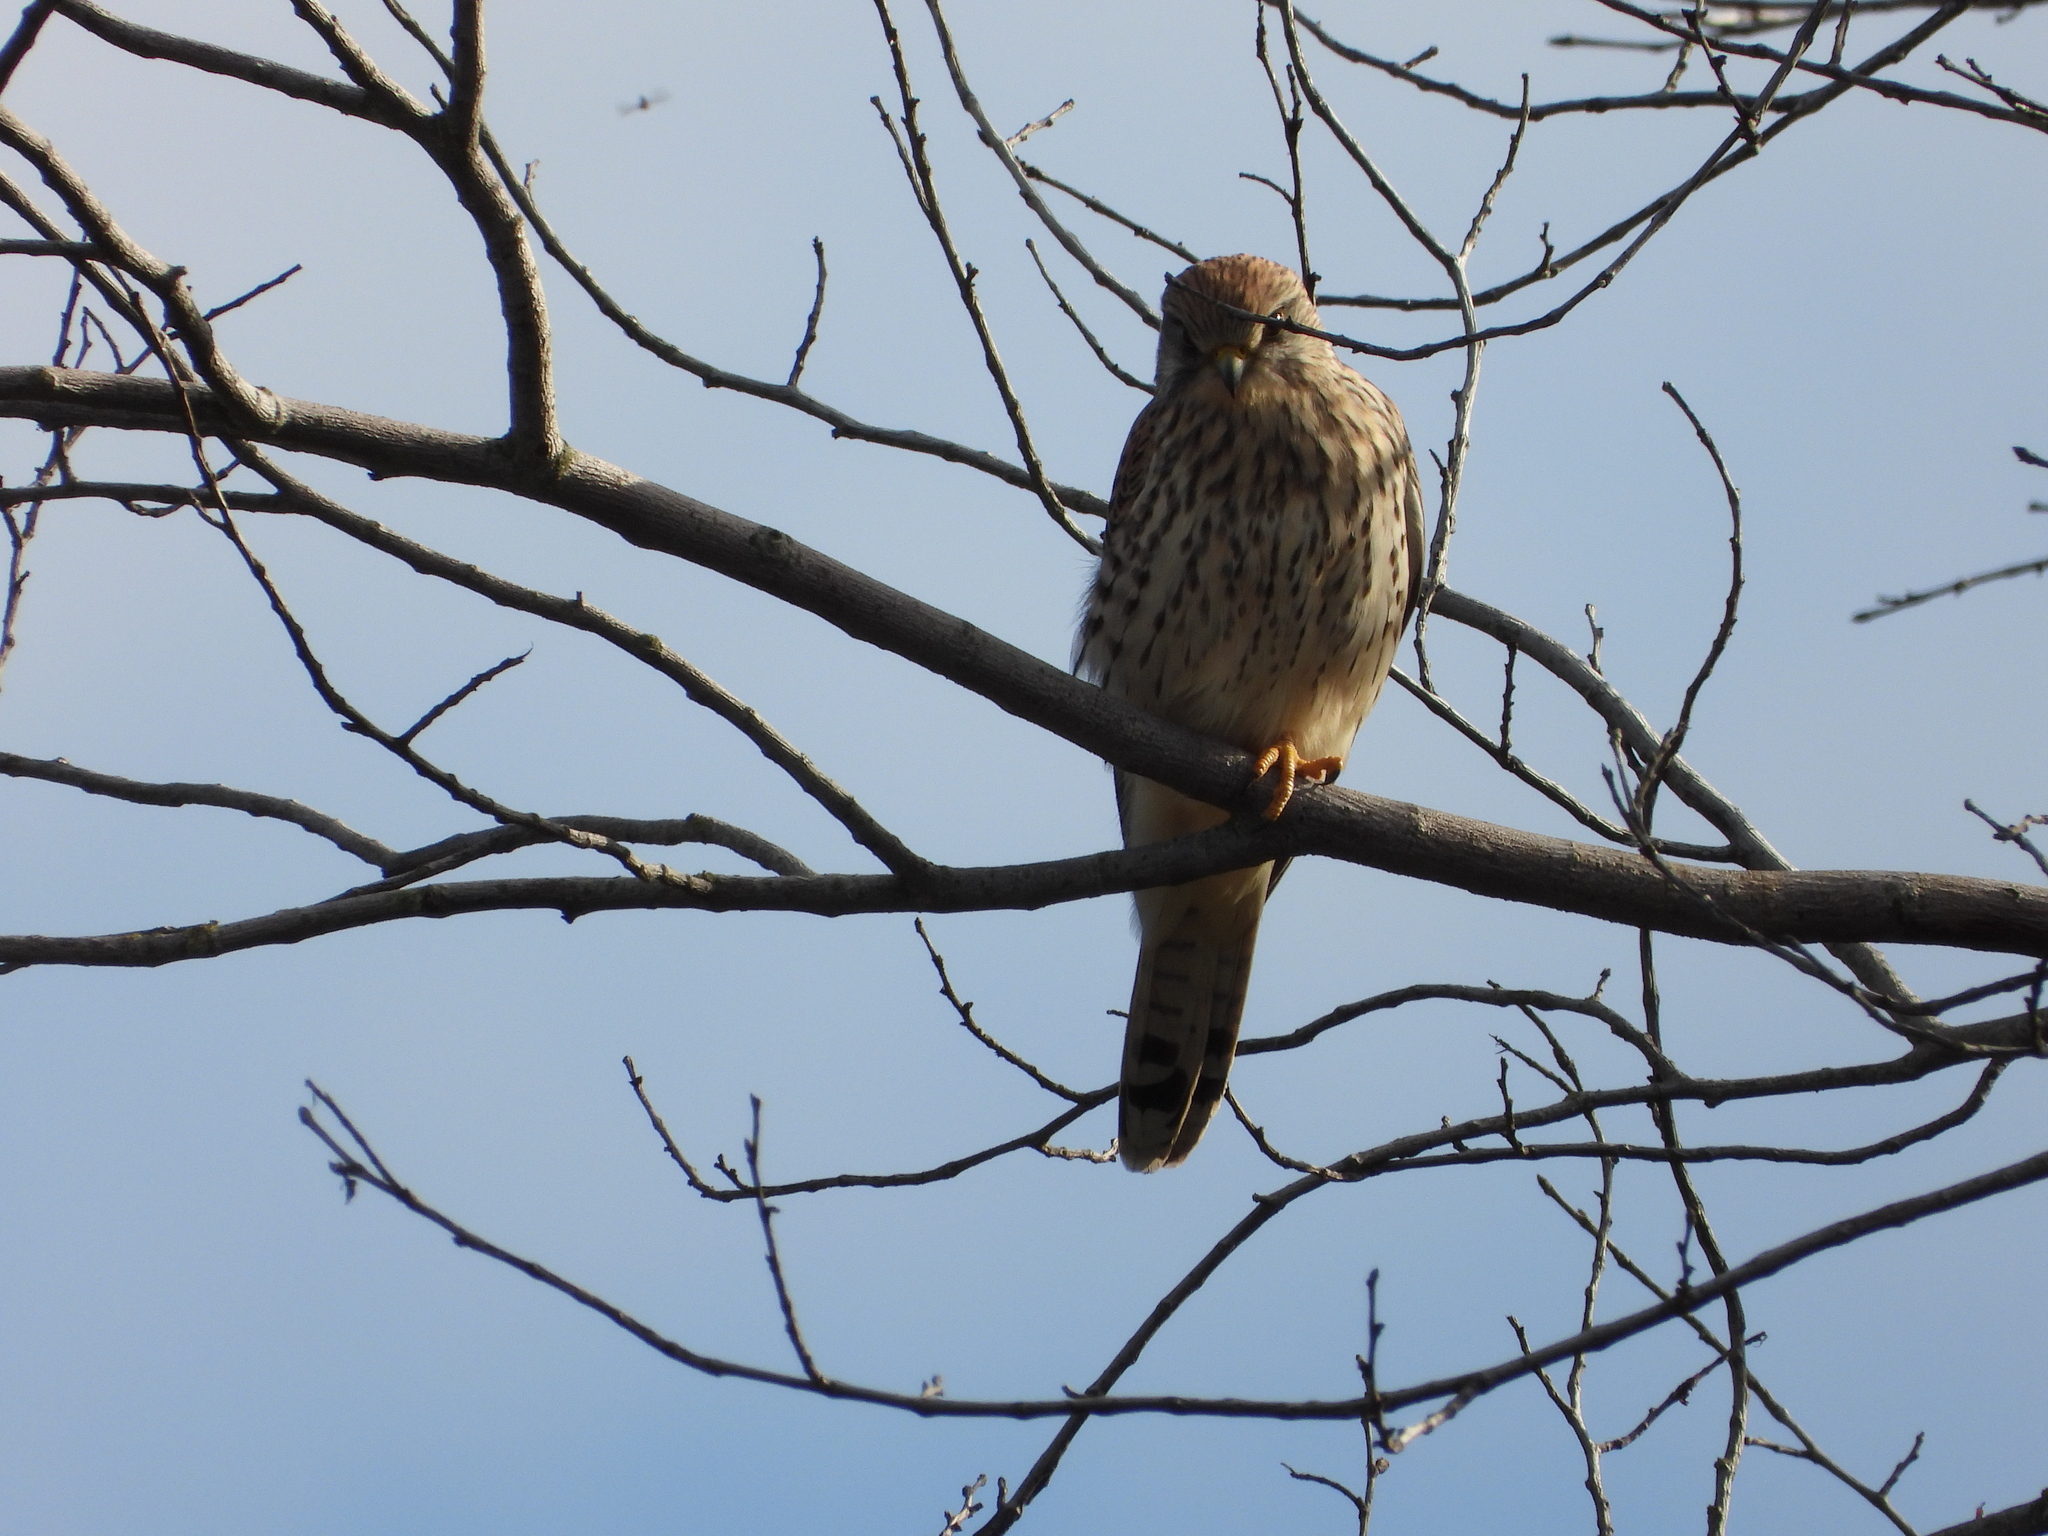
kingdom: Animalia
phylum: Chordata
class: Aves
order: Falconiformes
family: Falconidae
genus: Falco
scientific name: Falco tinnunculus
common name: Common kestrel
